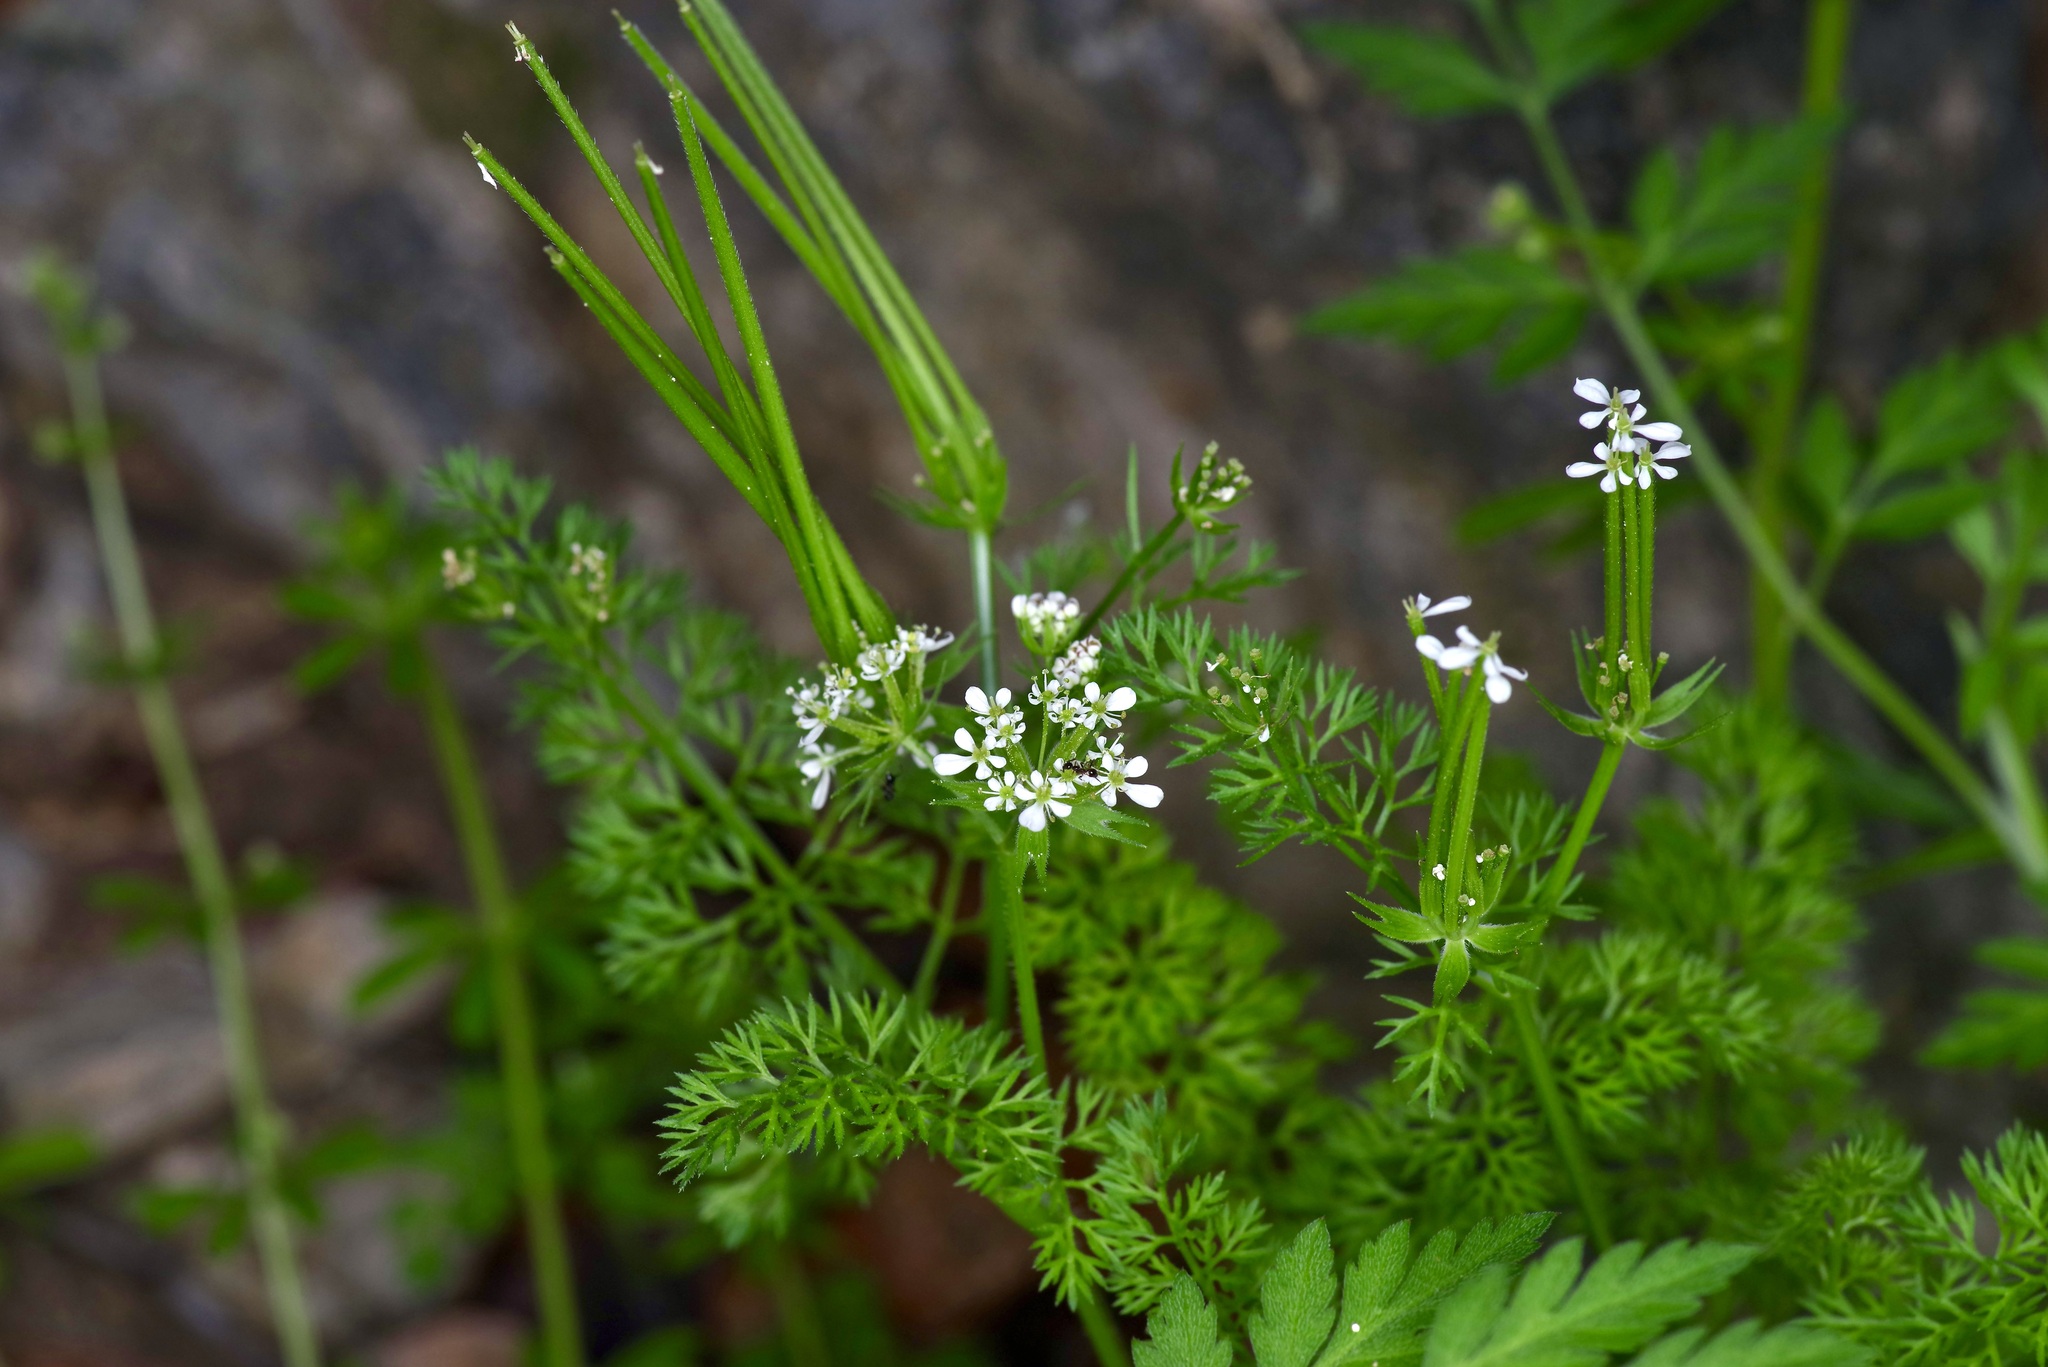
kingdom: Plantae
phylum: Tracheophyta
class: Magnoliopsida
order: Apiales
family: Apiaceae
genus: Scandix
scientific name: Scandix pecten-veneris
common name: Shepherd's-needle
